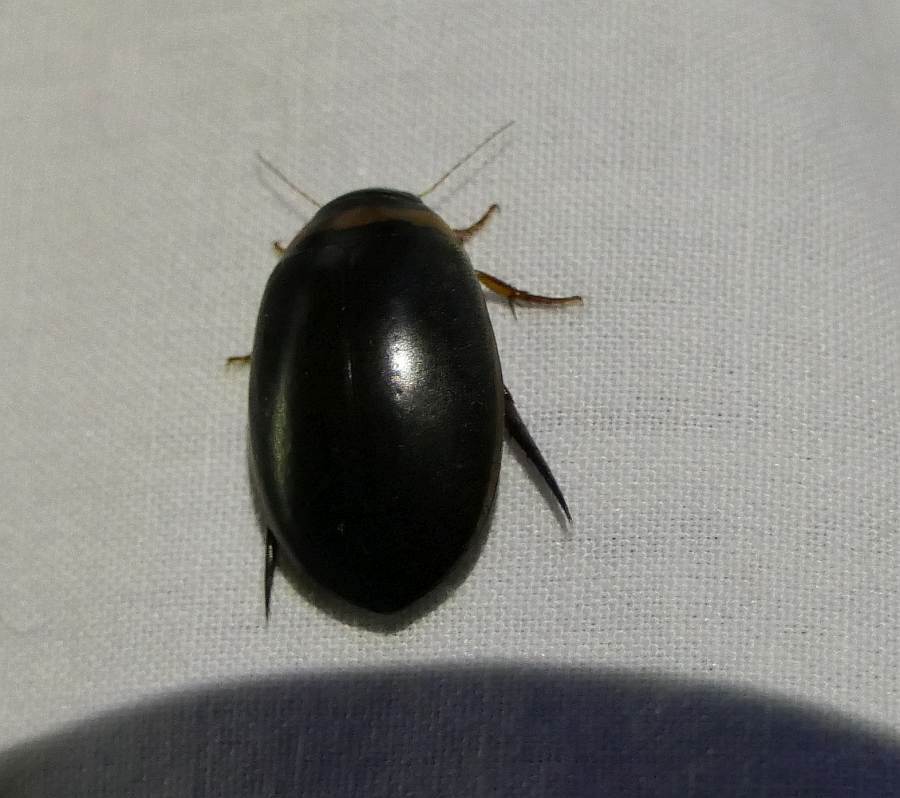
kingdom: Animalia
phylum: Arthropoda
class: Insecta
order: Coleoptera
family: Dytiscidae
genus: Graphoderus
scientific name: Graphoderus fascicollis
